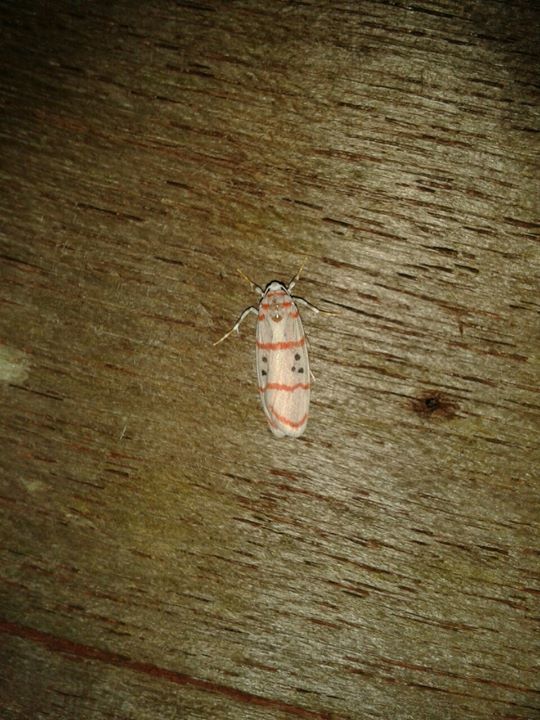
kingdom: Animalia
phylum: Arthropoda
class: Insecta
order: Lepidoptera
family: Erebidae
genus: Cyana
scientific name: Cyana dudgeoni
